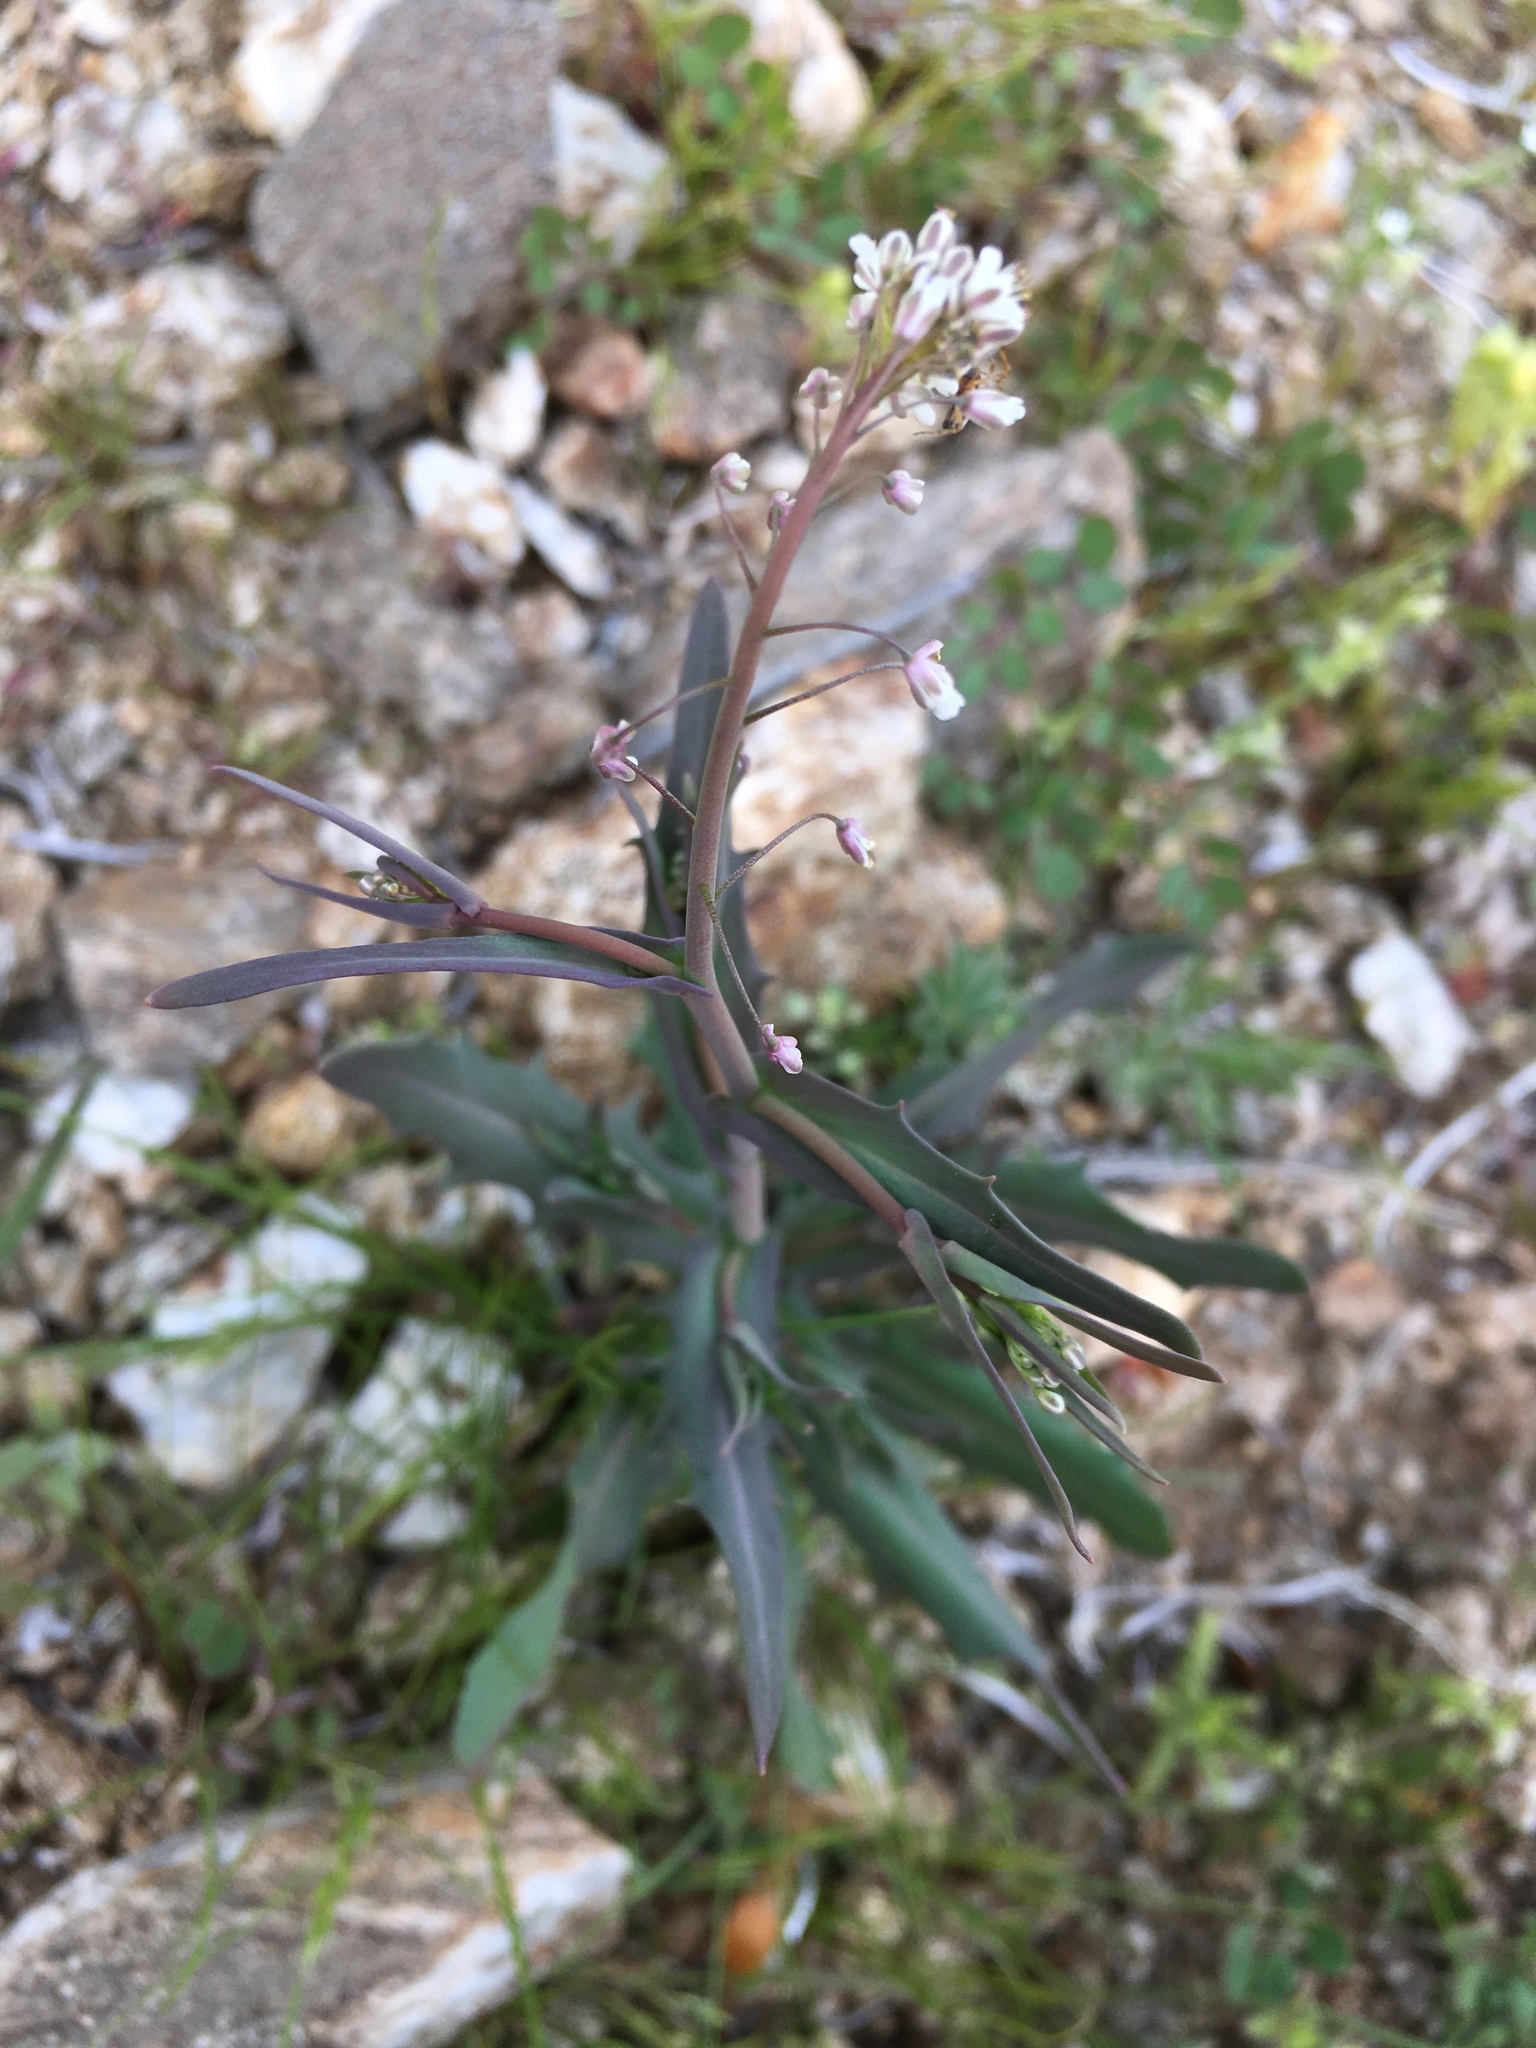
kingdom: Plantae
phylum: Tracheophyta
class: Magnoliopsida
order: Brassicales
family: Brassicaceae
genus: Thysanocarpus
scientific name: Thysanocarpus curvipes
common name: Sand fringepod
